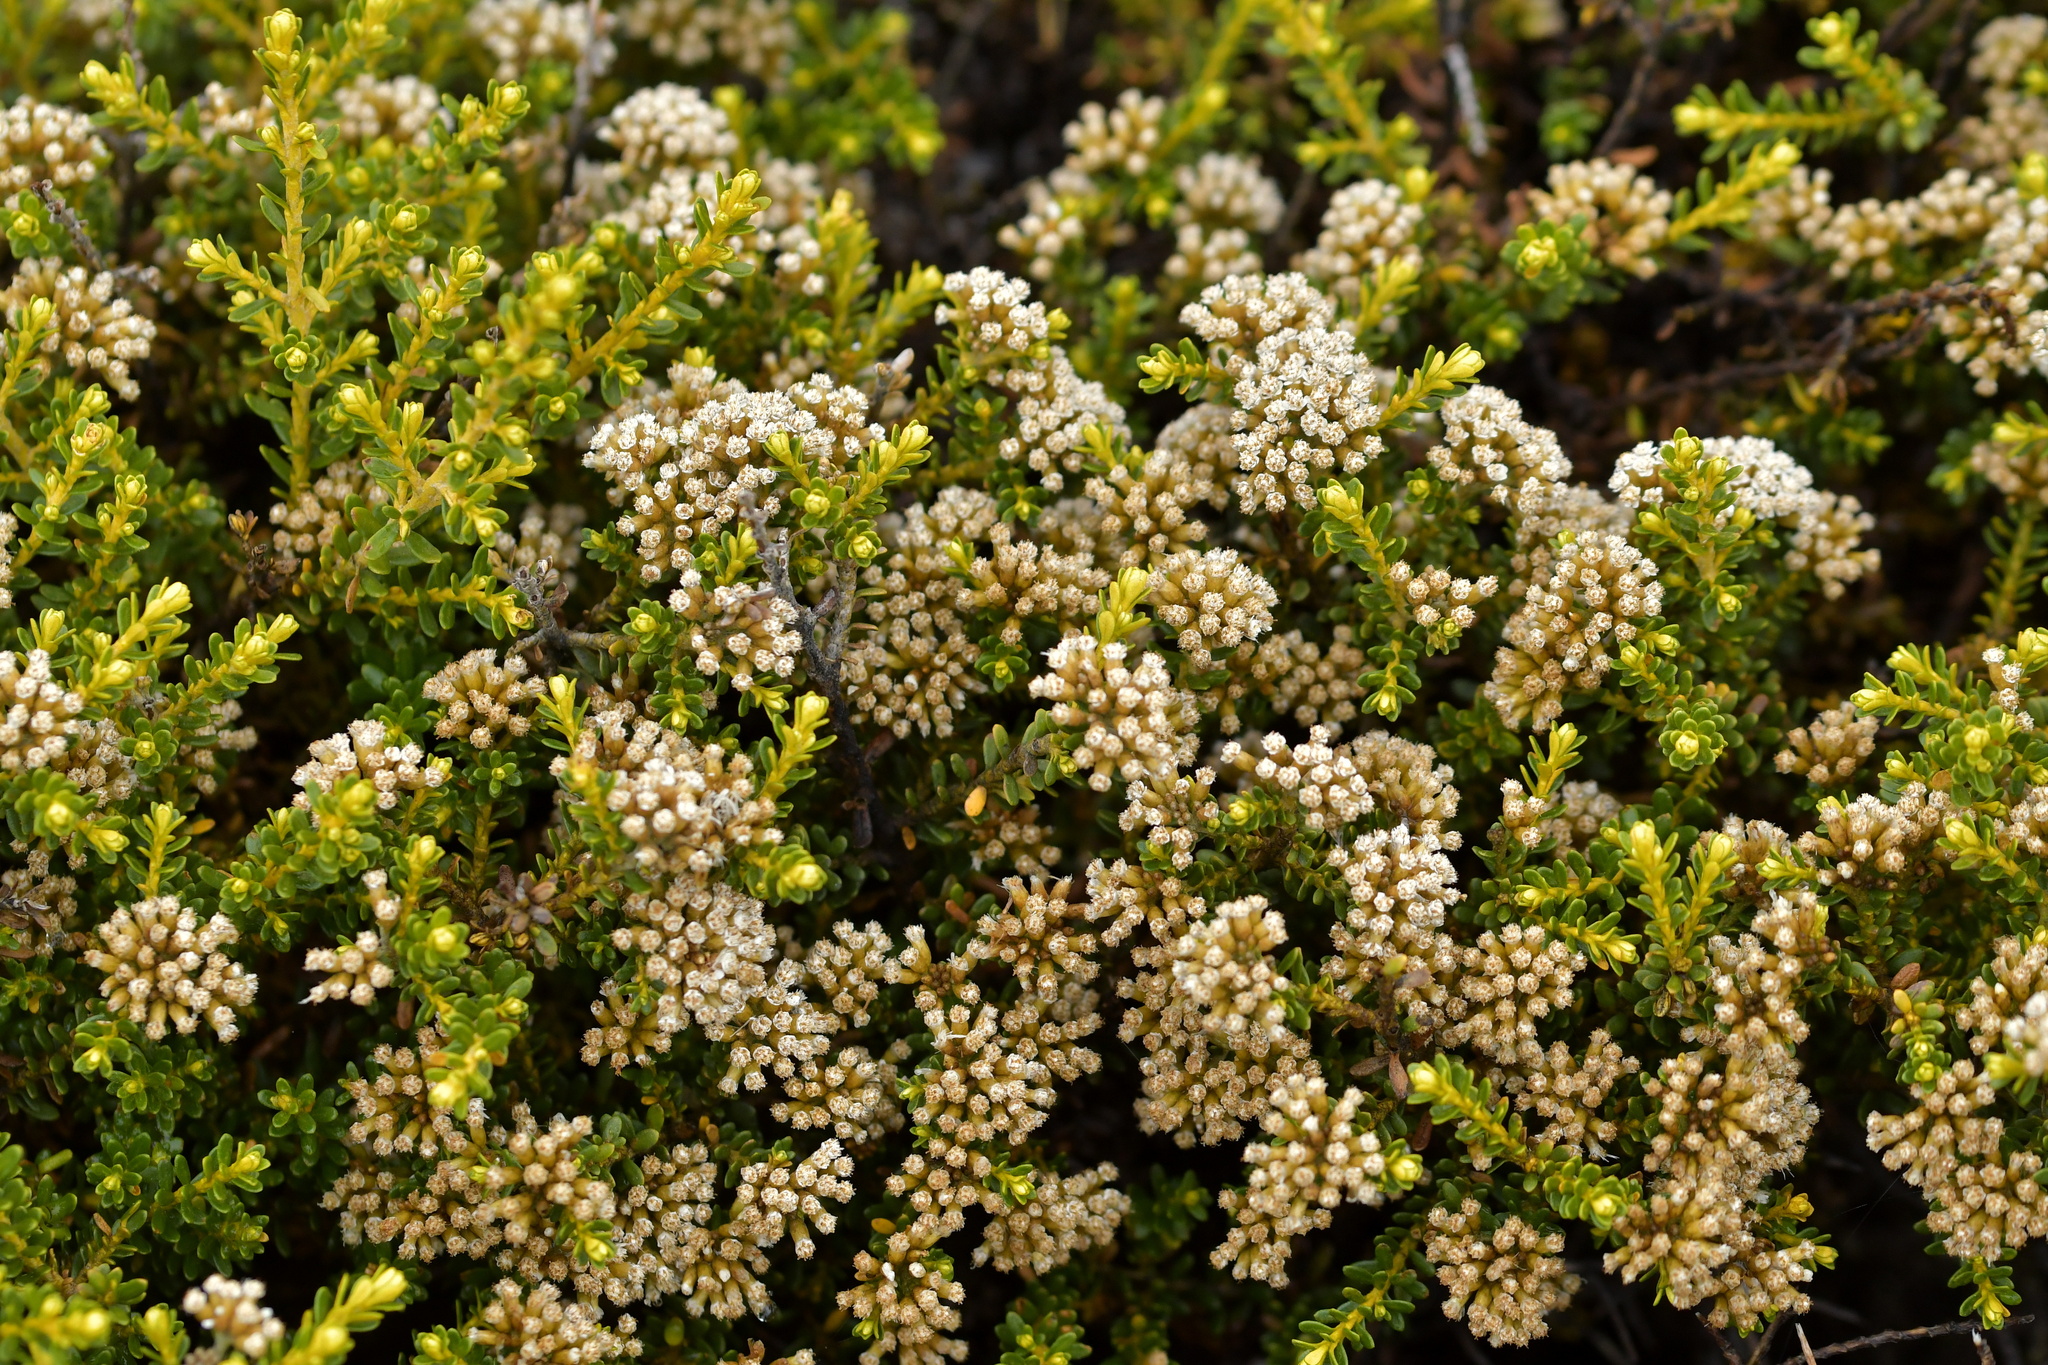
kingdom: Plantae
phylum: Tracheophyta
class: Magnoliopsida
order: Asterales
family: Asteraceae
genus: Ozothamnus
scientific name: Ozothamnus leptophyllus
